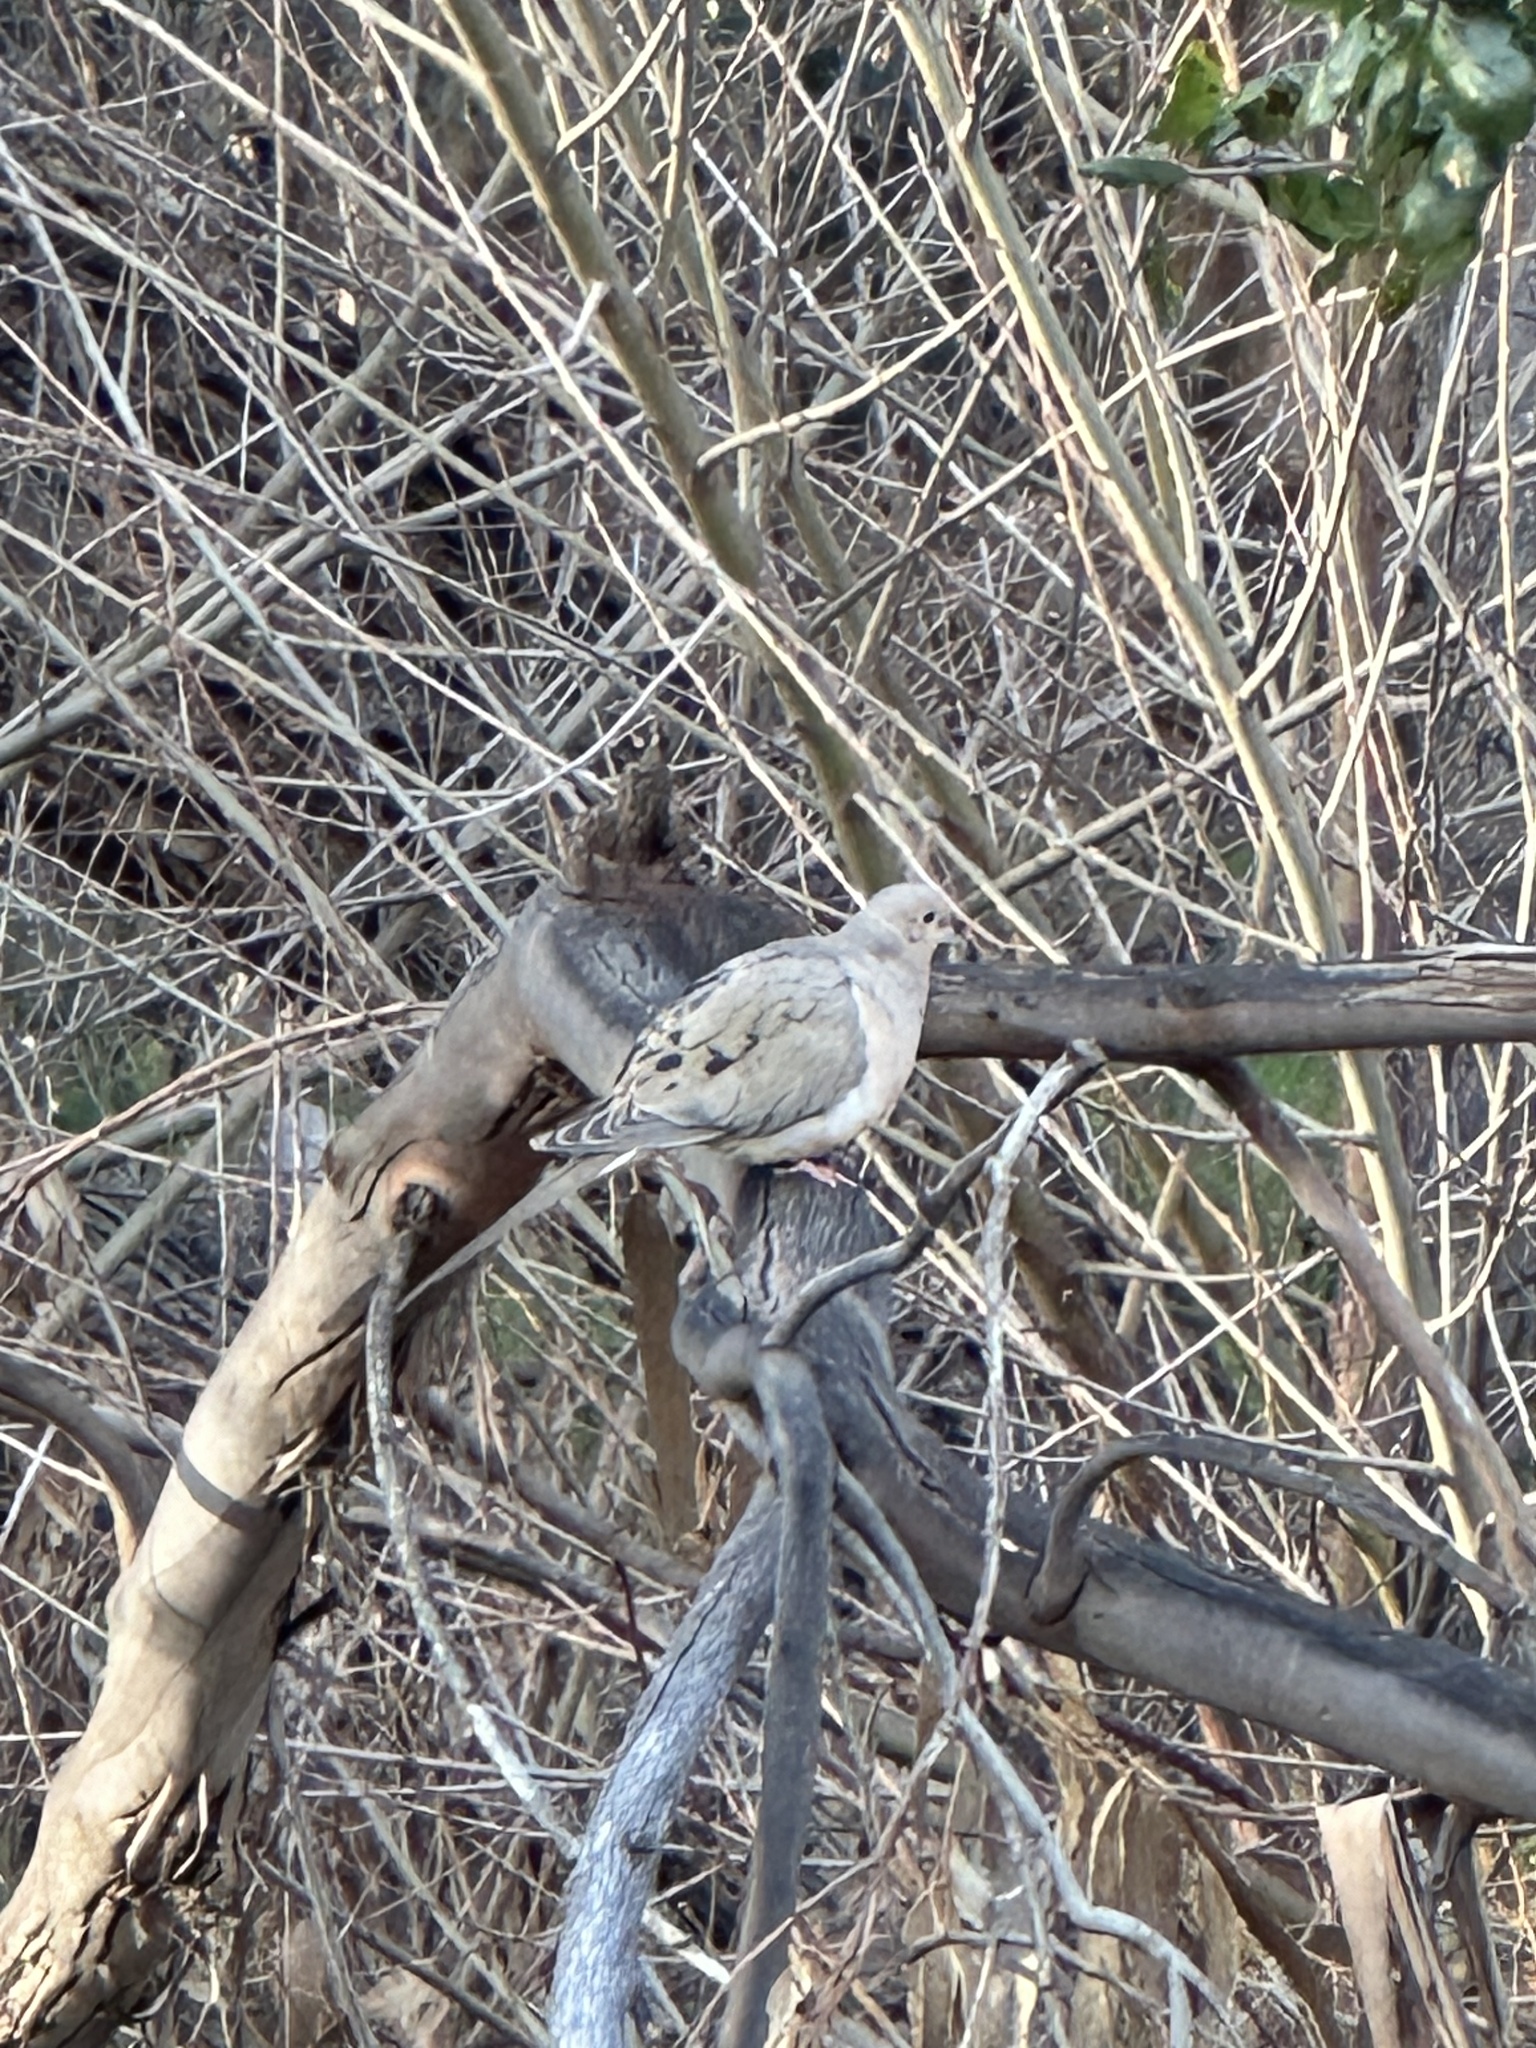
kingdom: Animalia
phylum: Chordata
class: Aves
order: Columbiformes
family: Columbidae
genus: Zenaida
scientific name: Zenaida macroura
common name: Mourning dove
